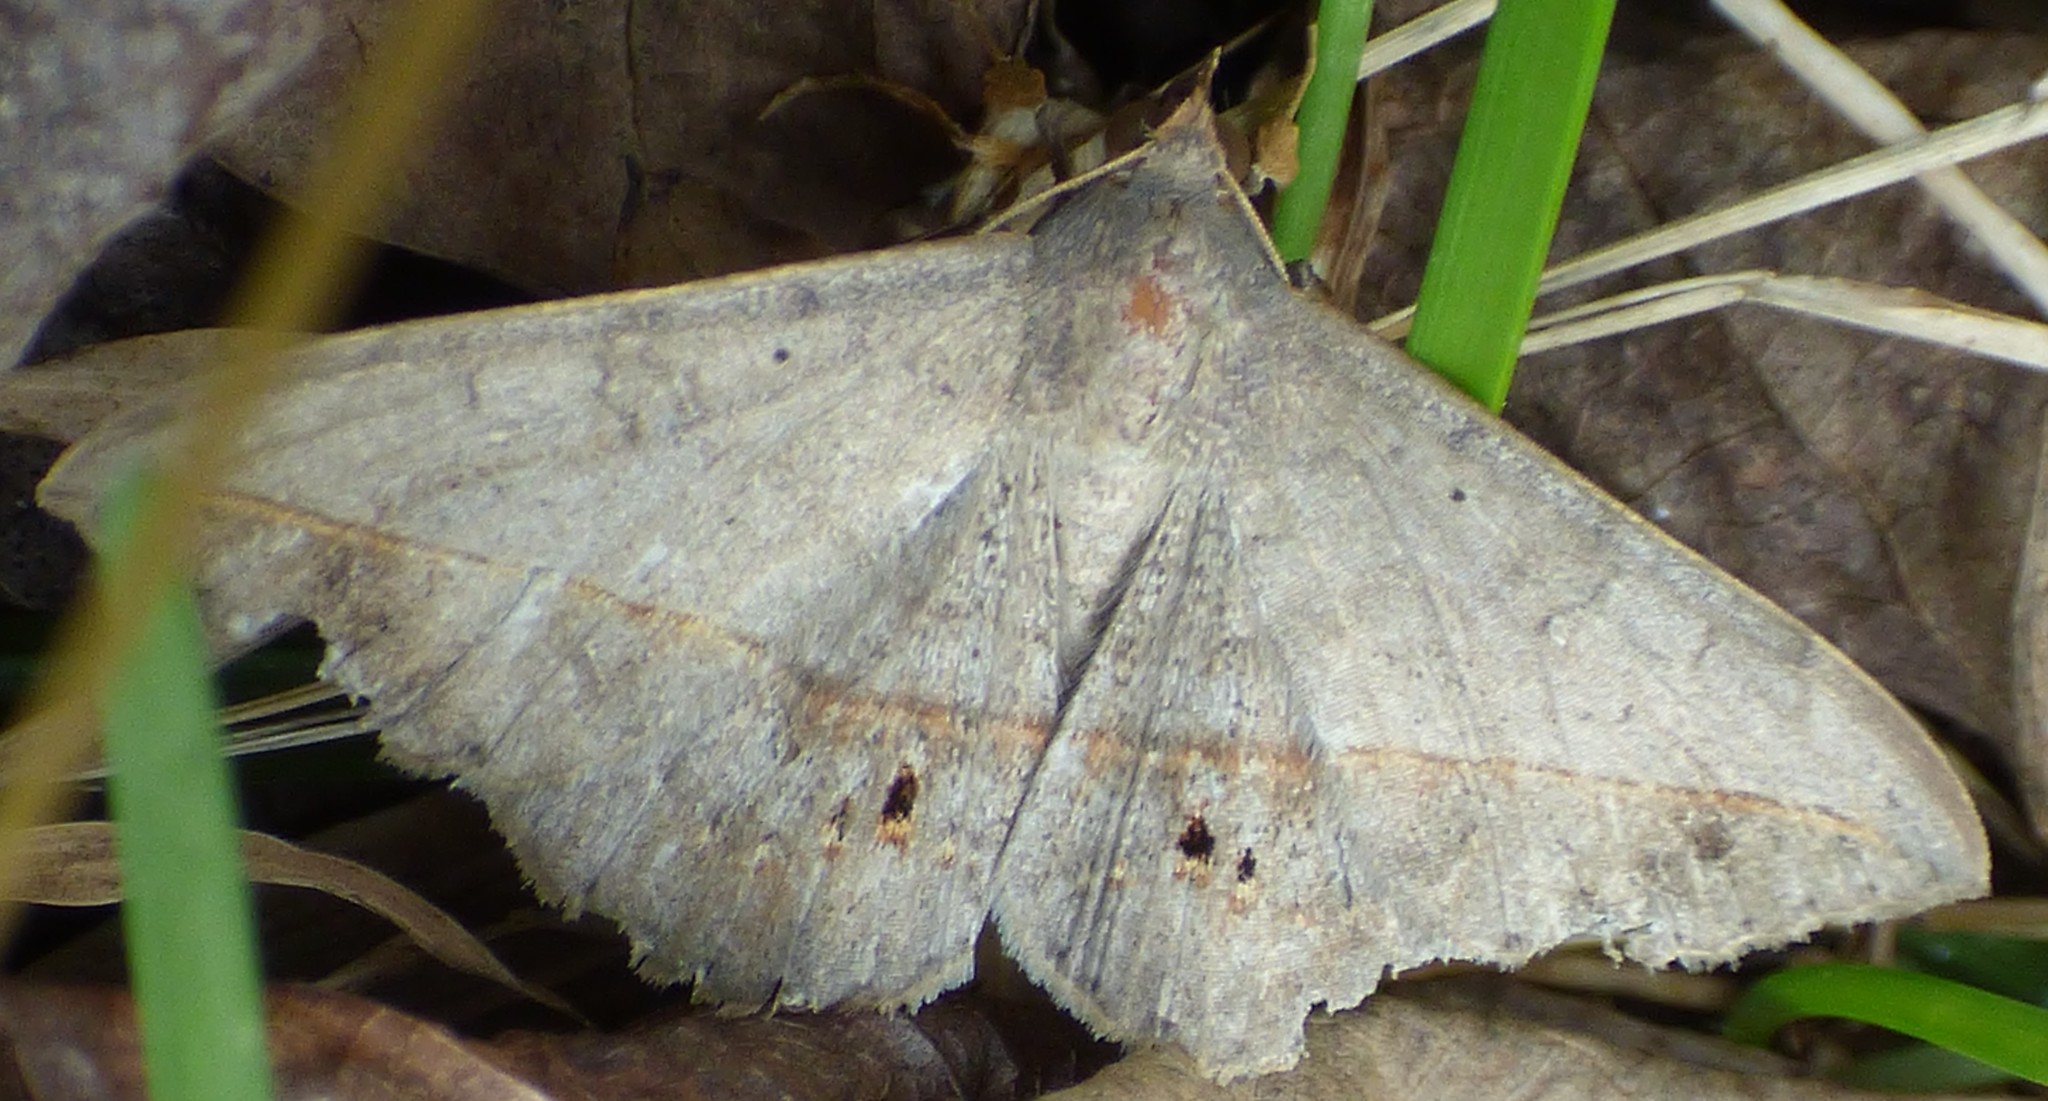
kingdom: Animalia
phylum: Arthropoda
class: Insecta
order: Lepidoptera
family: Erebidae
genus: Anticarsia
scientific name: Anticarsia gemmatalis
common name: Cutworm moth
